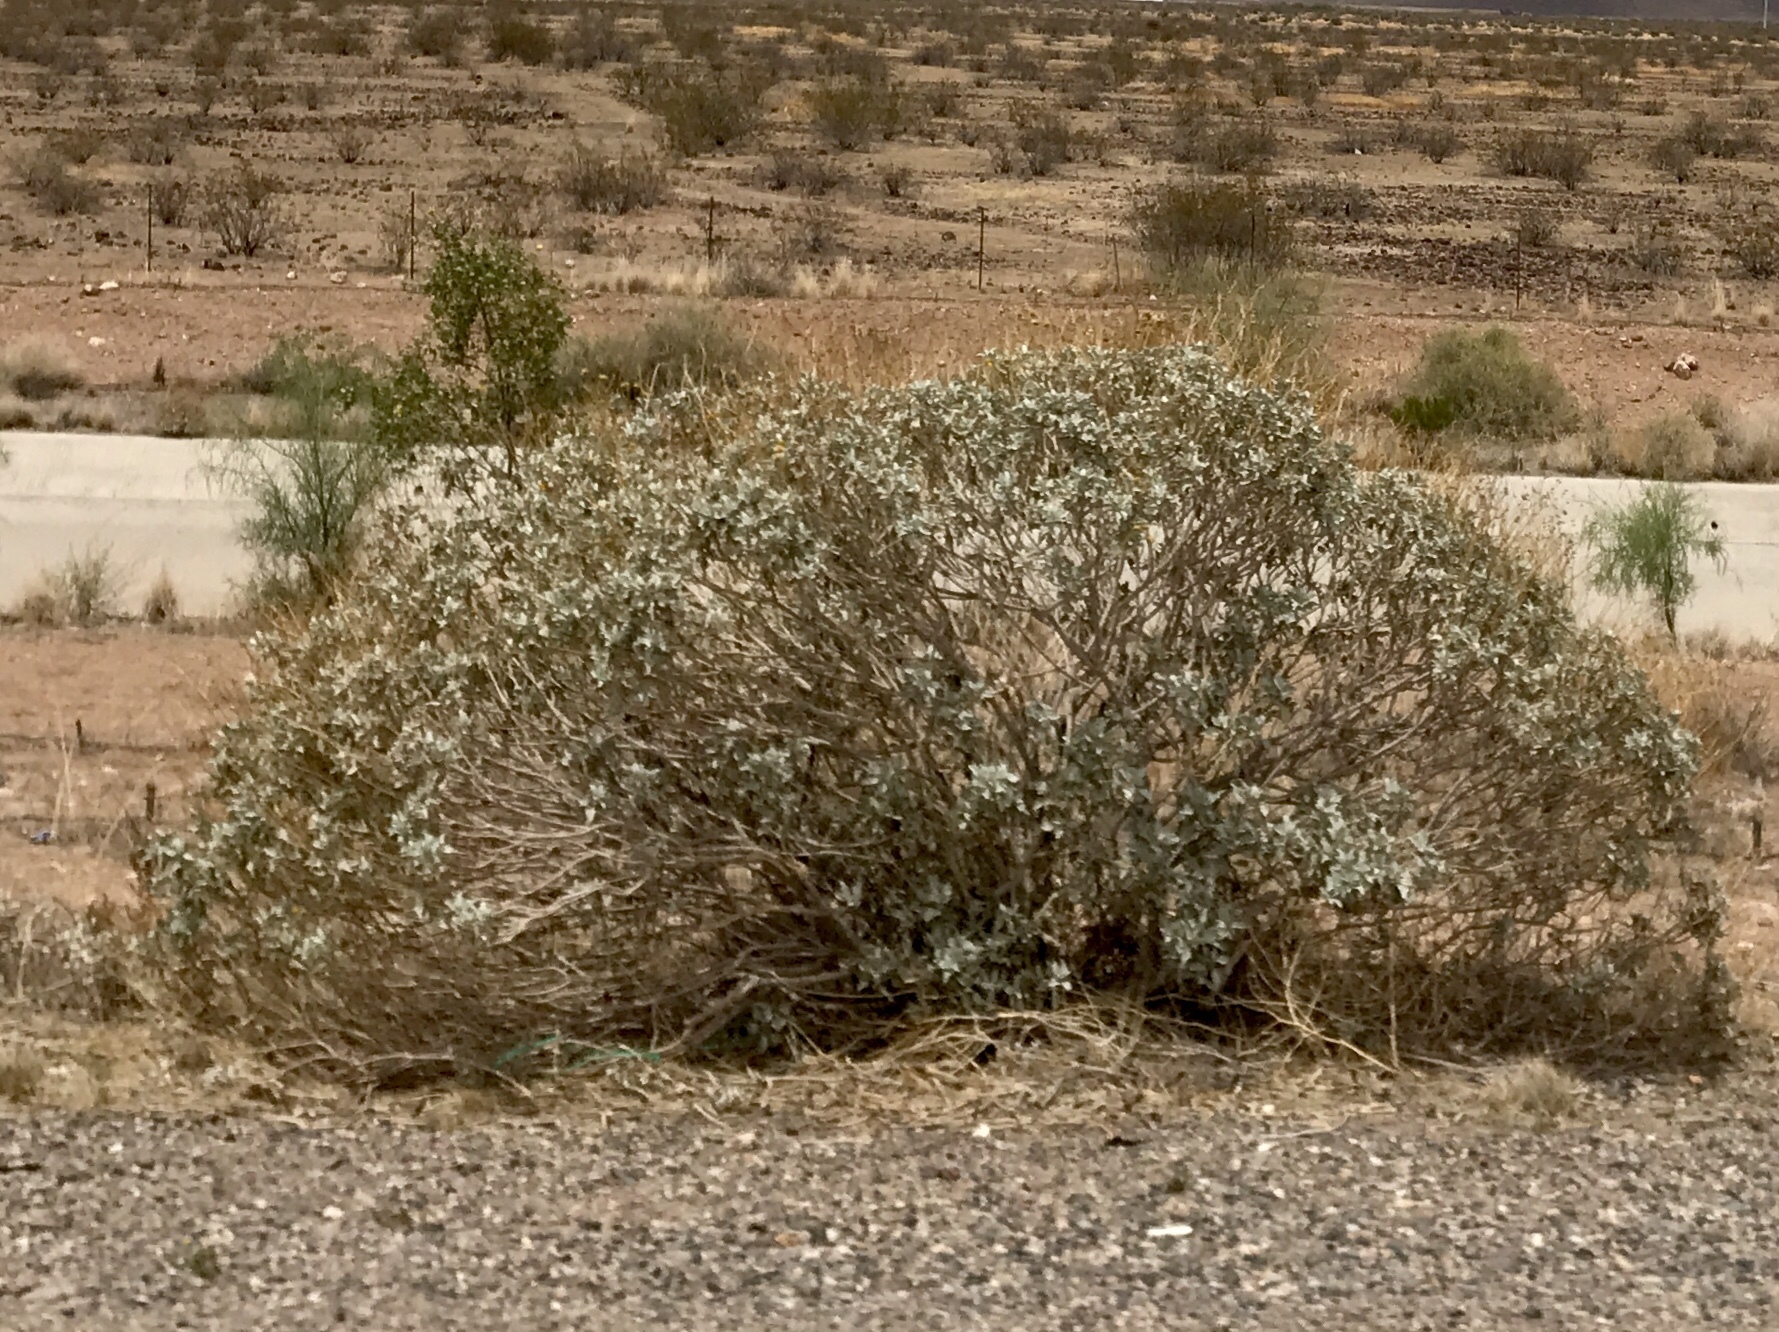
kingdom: Plantae
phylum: Tracheophyta
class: Magnoliopsida
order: Asterales
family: Asteraceae
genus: Encelia
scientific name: Encelia farinosa
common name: Brittlebush
